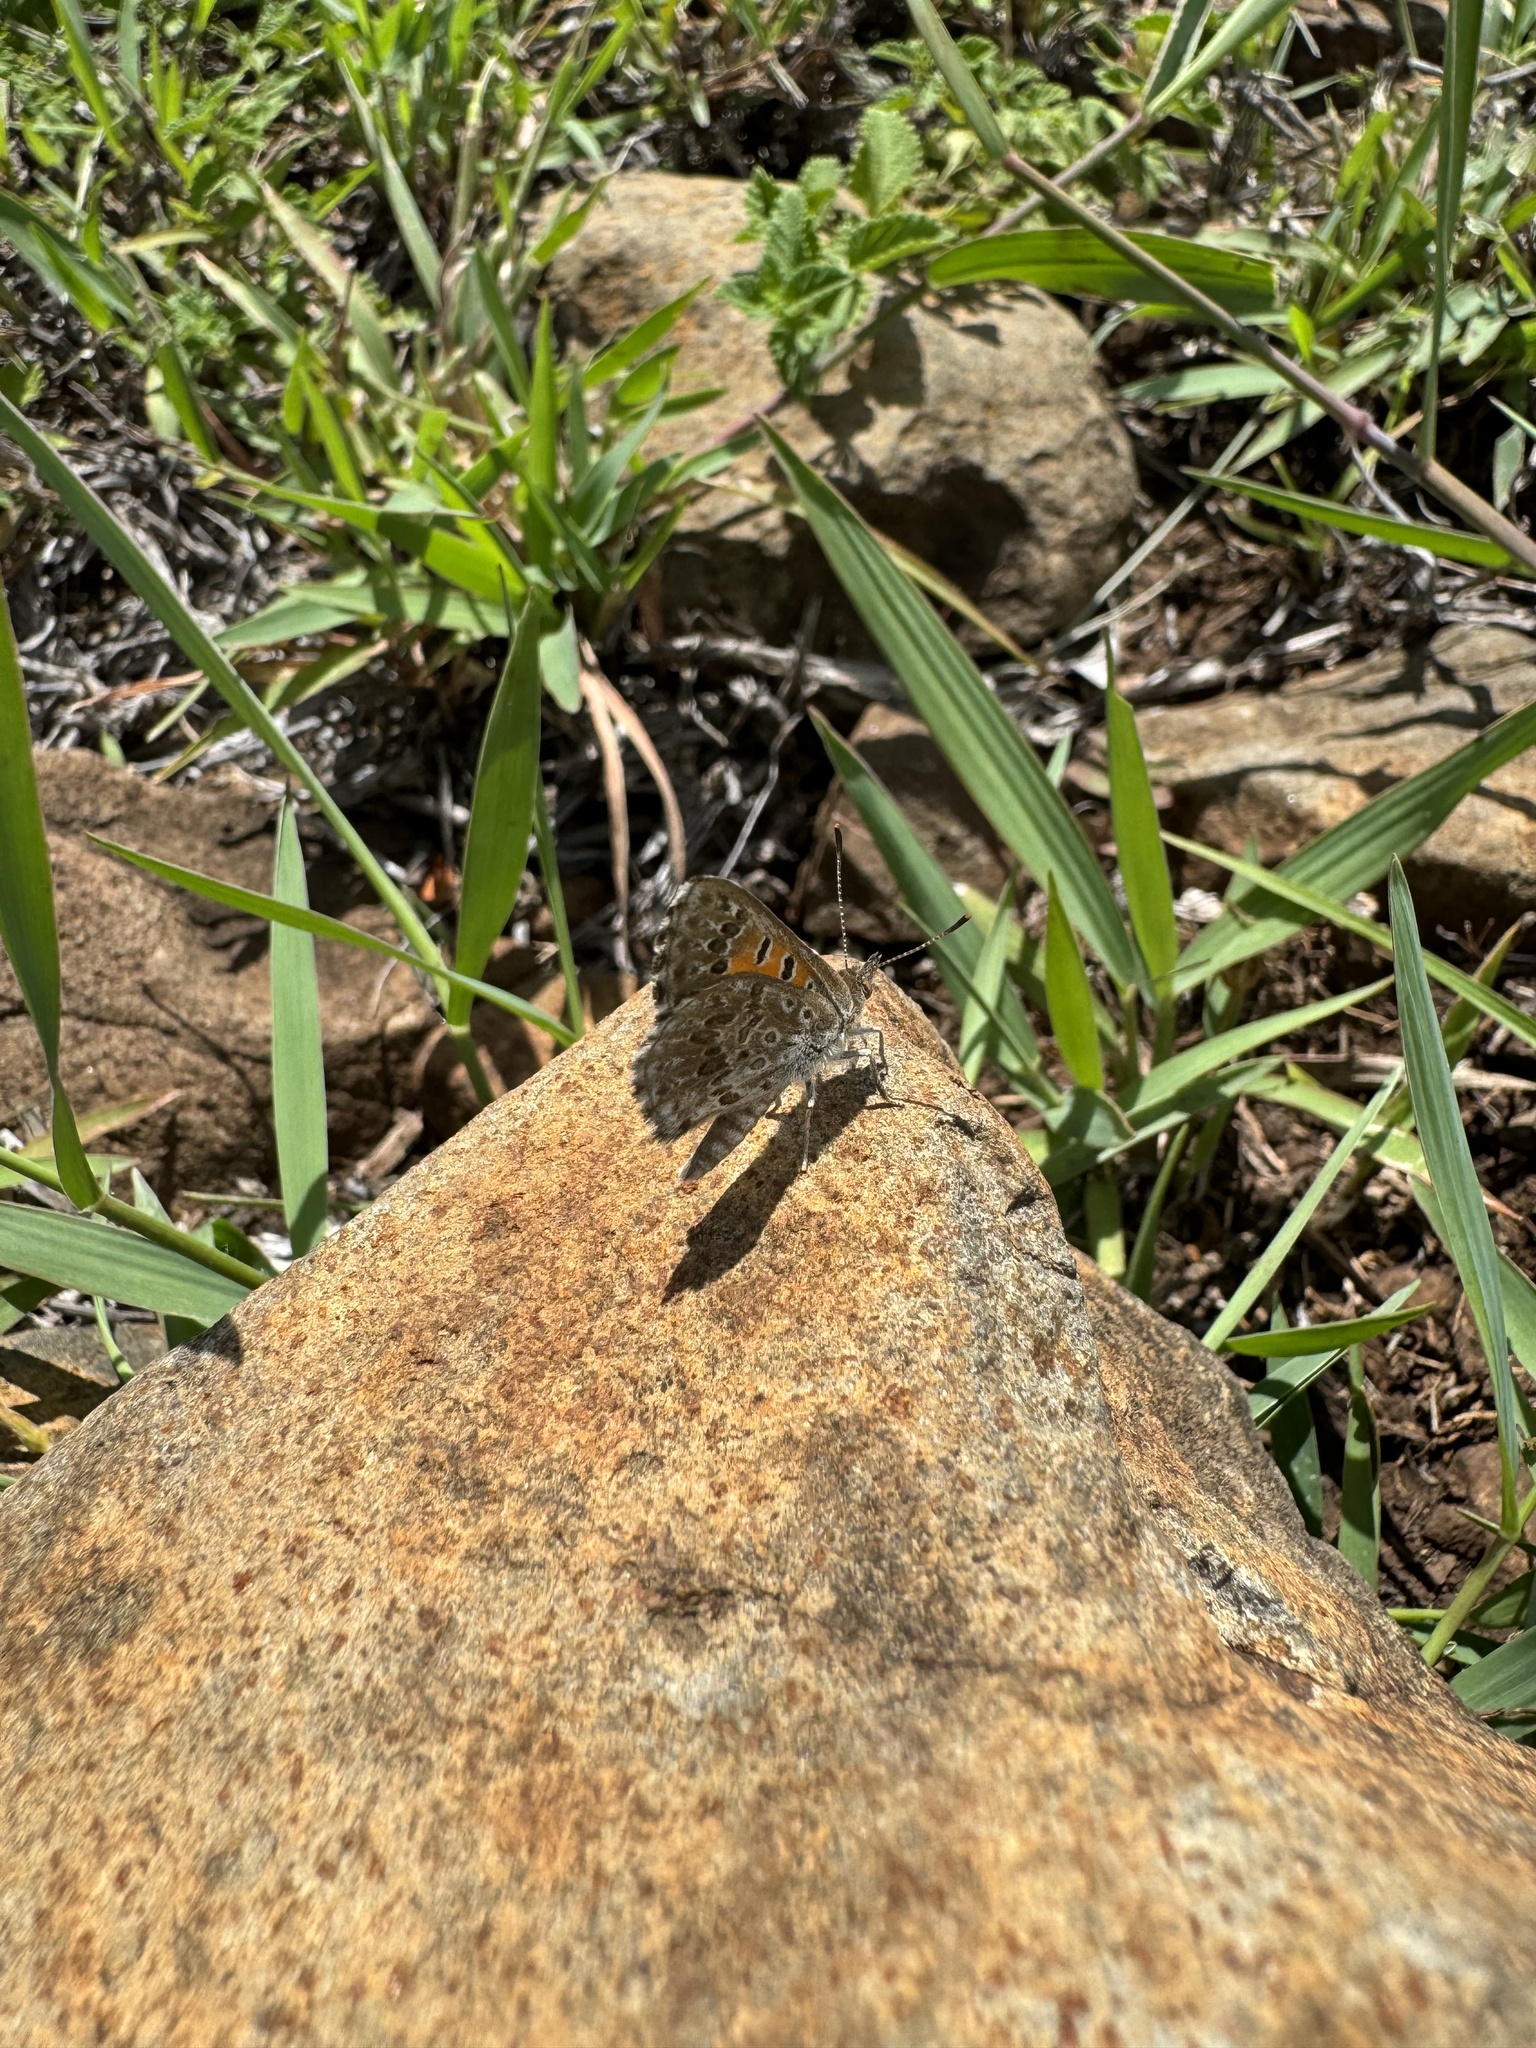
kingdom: Animalia
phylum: Arthropoda
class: Insecta
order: Lepidoptera
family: Lycaenidae
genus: Lucia
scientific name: Lucia limbaria
